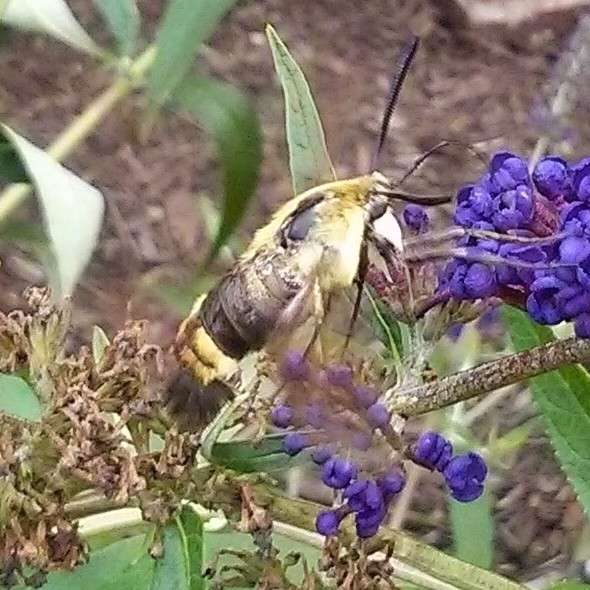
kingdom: Animalia
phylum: Arthropoda
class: Insecta
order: Lepidoptera
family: Sphingidae
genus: Hemaris
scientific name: Hemaris diffinis
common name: Bumblebee moth
